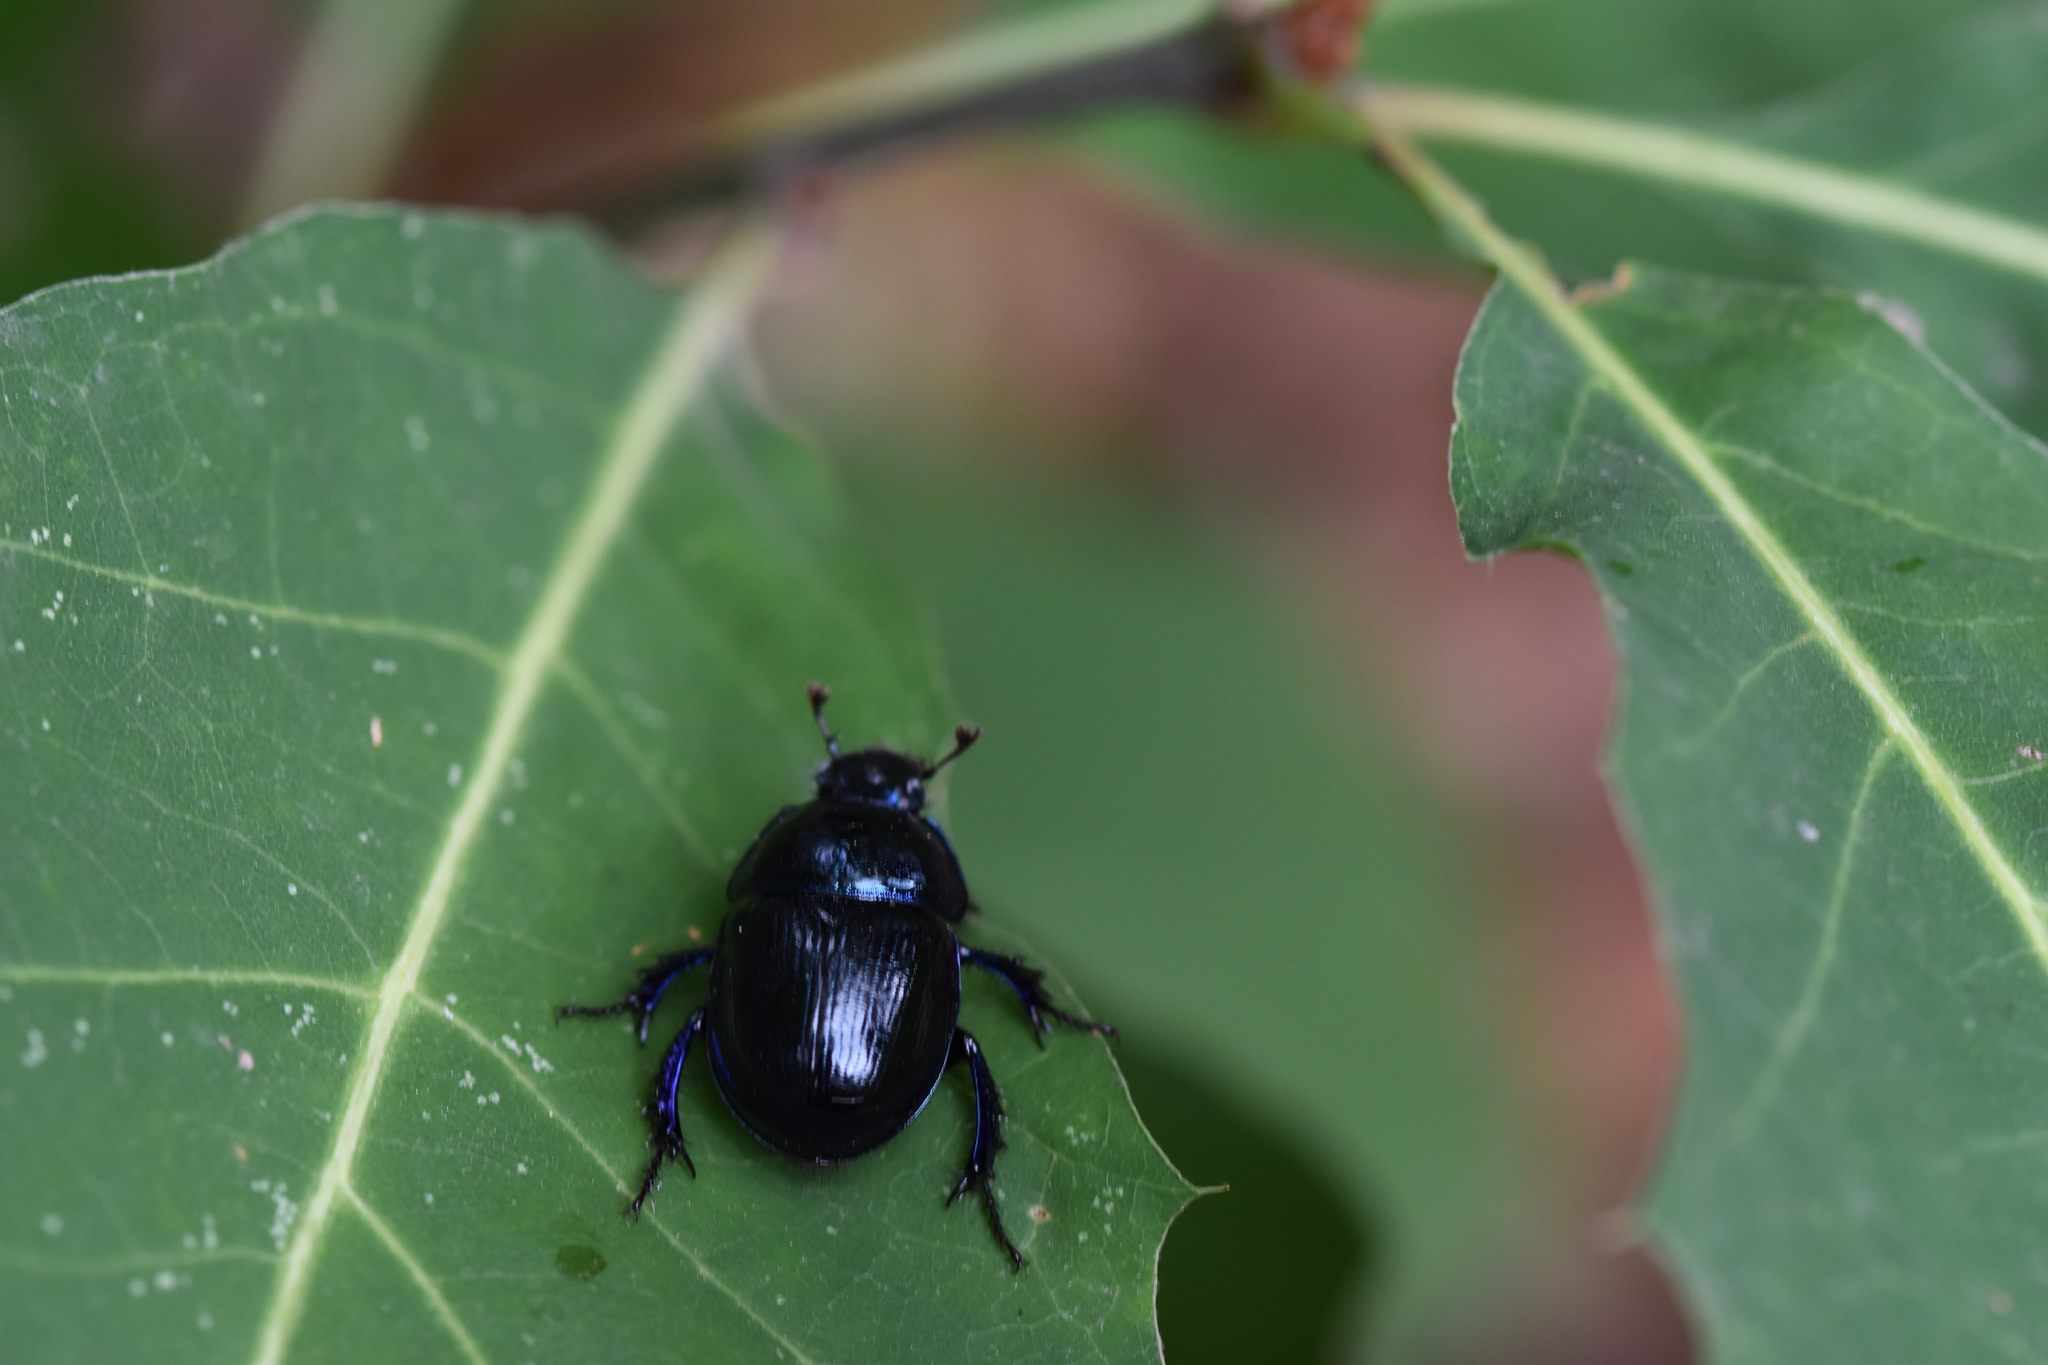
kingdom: Animalia
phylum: Arthropoda
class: Insecta
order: Coleoptera
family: Geotrupidae
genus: Anoplotrupes
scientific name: Anoplotrupes stercorosus
